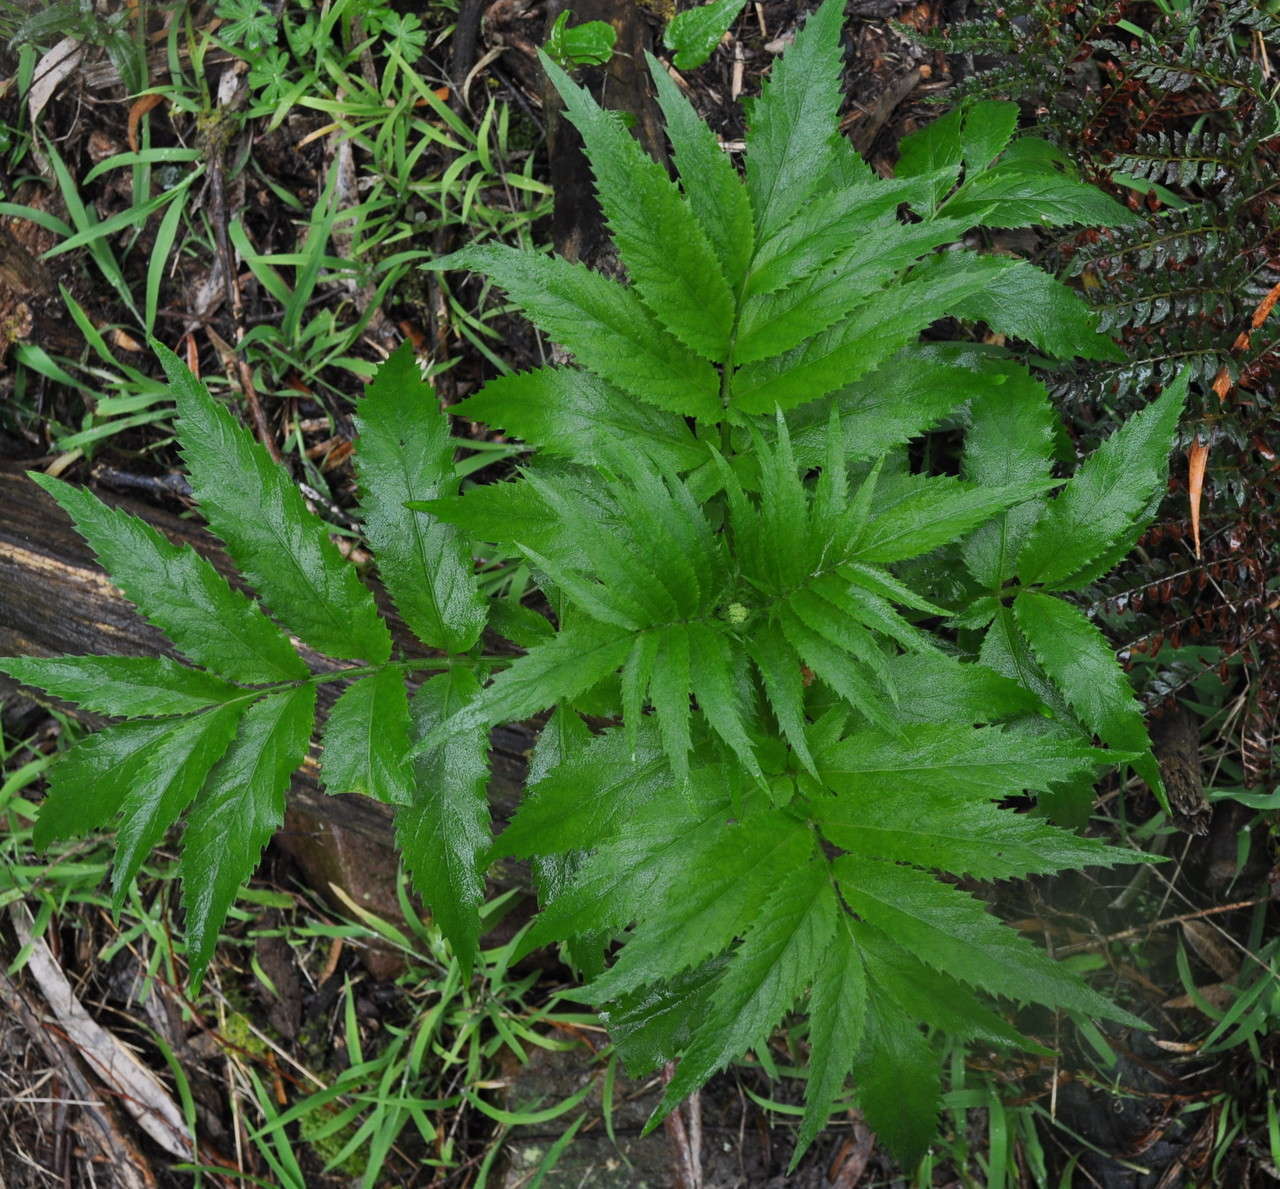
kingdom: Plantae
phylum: Tracheophyta
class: Magnoliopsida
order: Dipsacales
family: Viburnaceae
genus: Sambucus
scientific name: Sambucus gaudichaudiana
